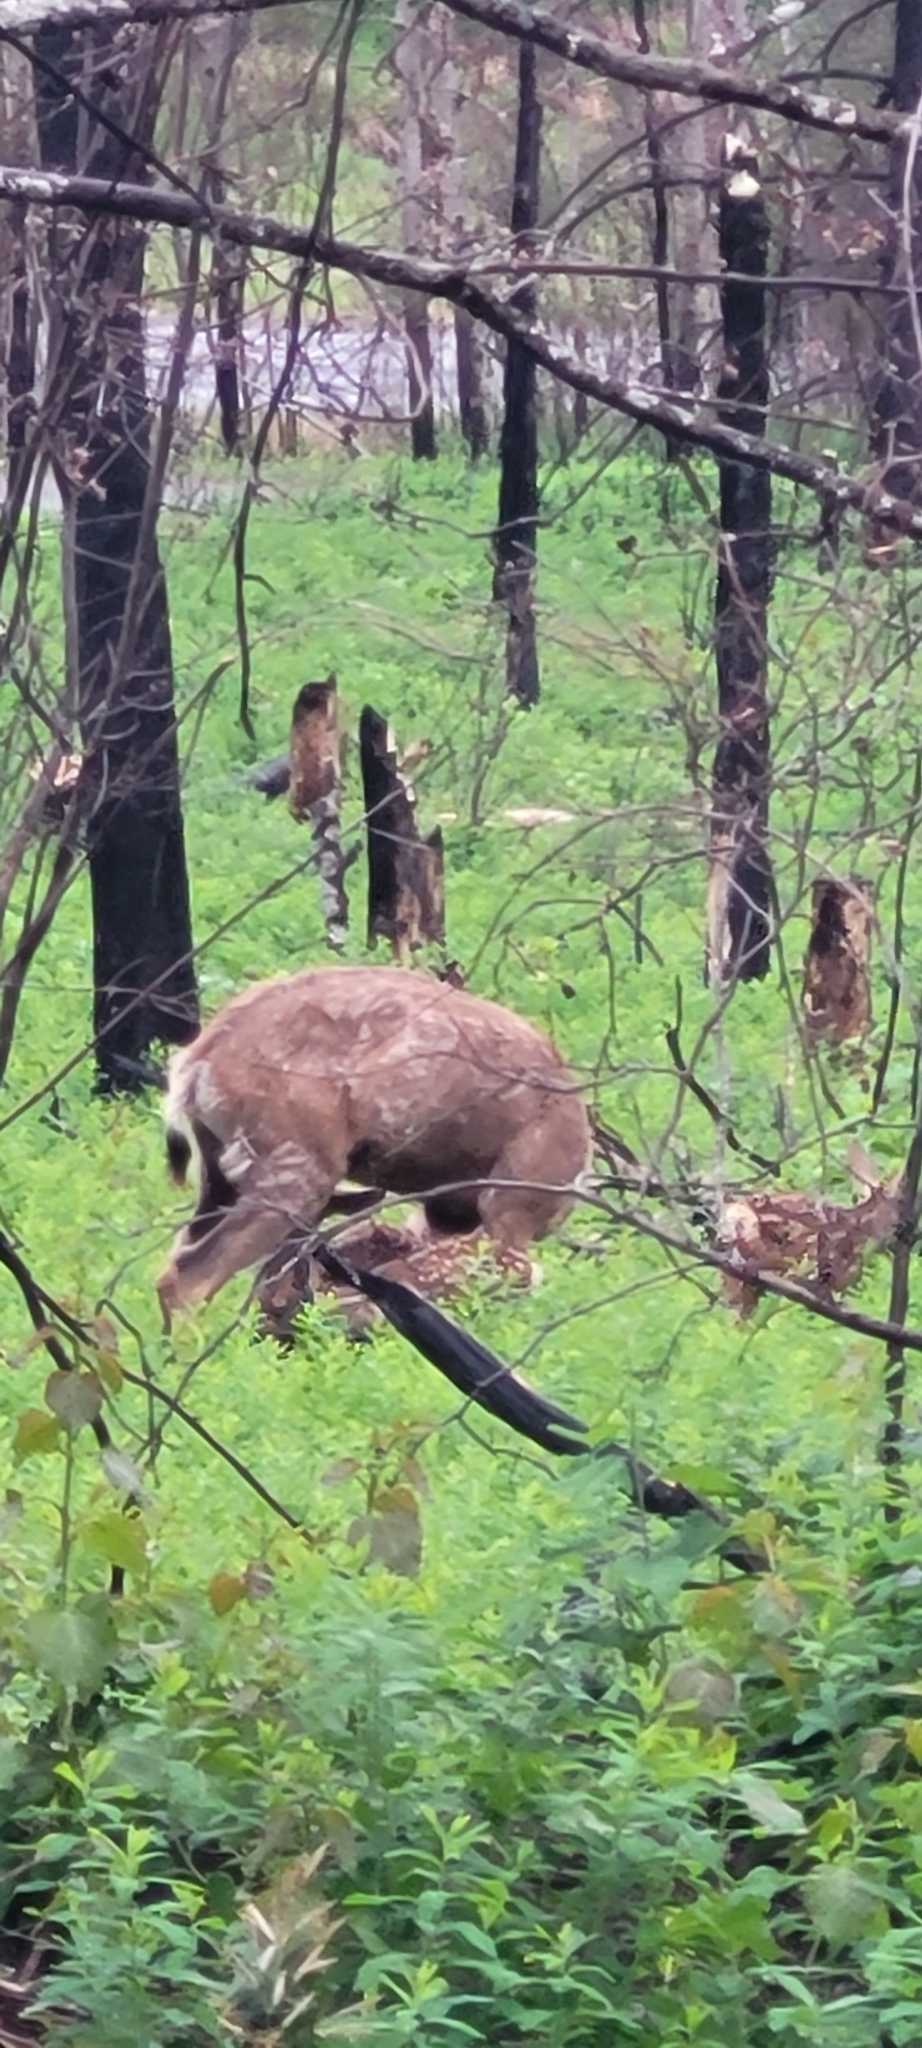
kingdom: Animalia
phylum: Chordata
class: Mammalia
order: Artiodactyla
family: Cervidae
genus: Odocoileus
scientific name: Odocoileus hemionus
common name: Mule deer
